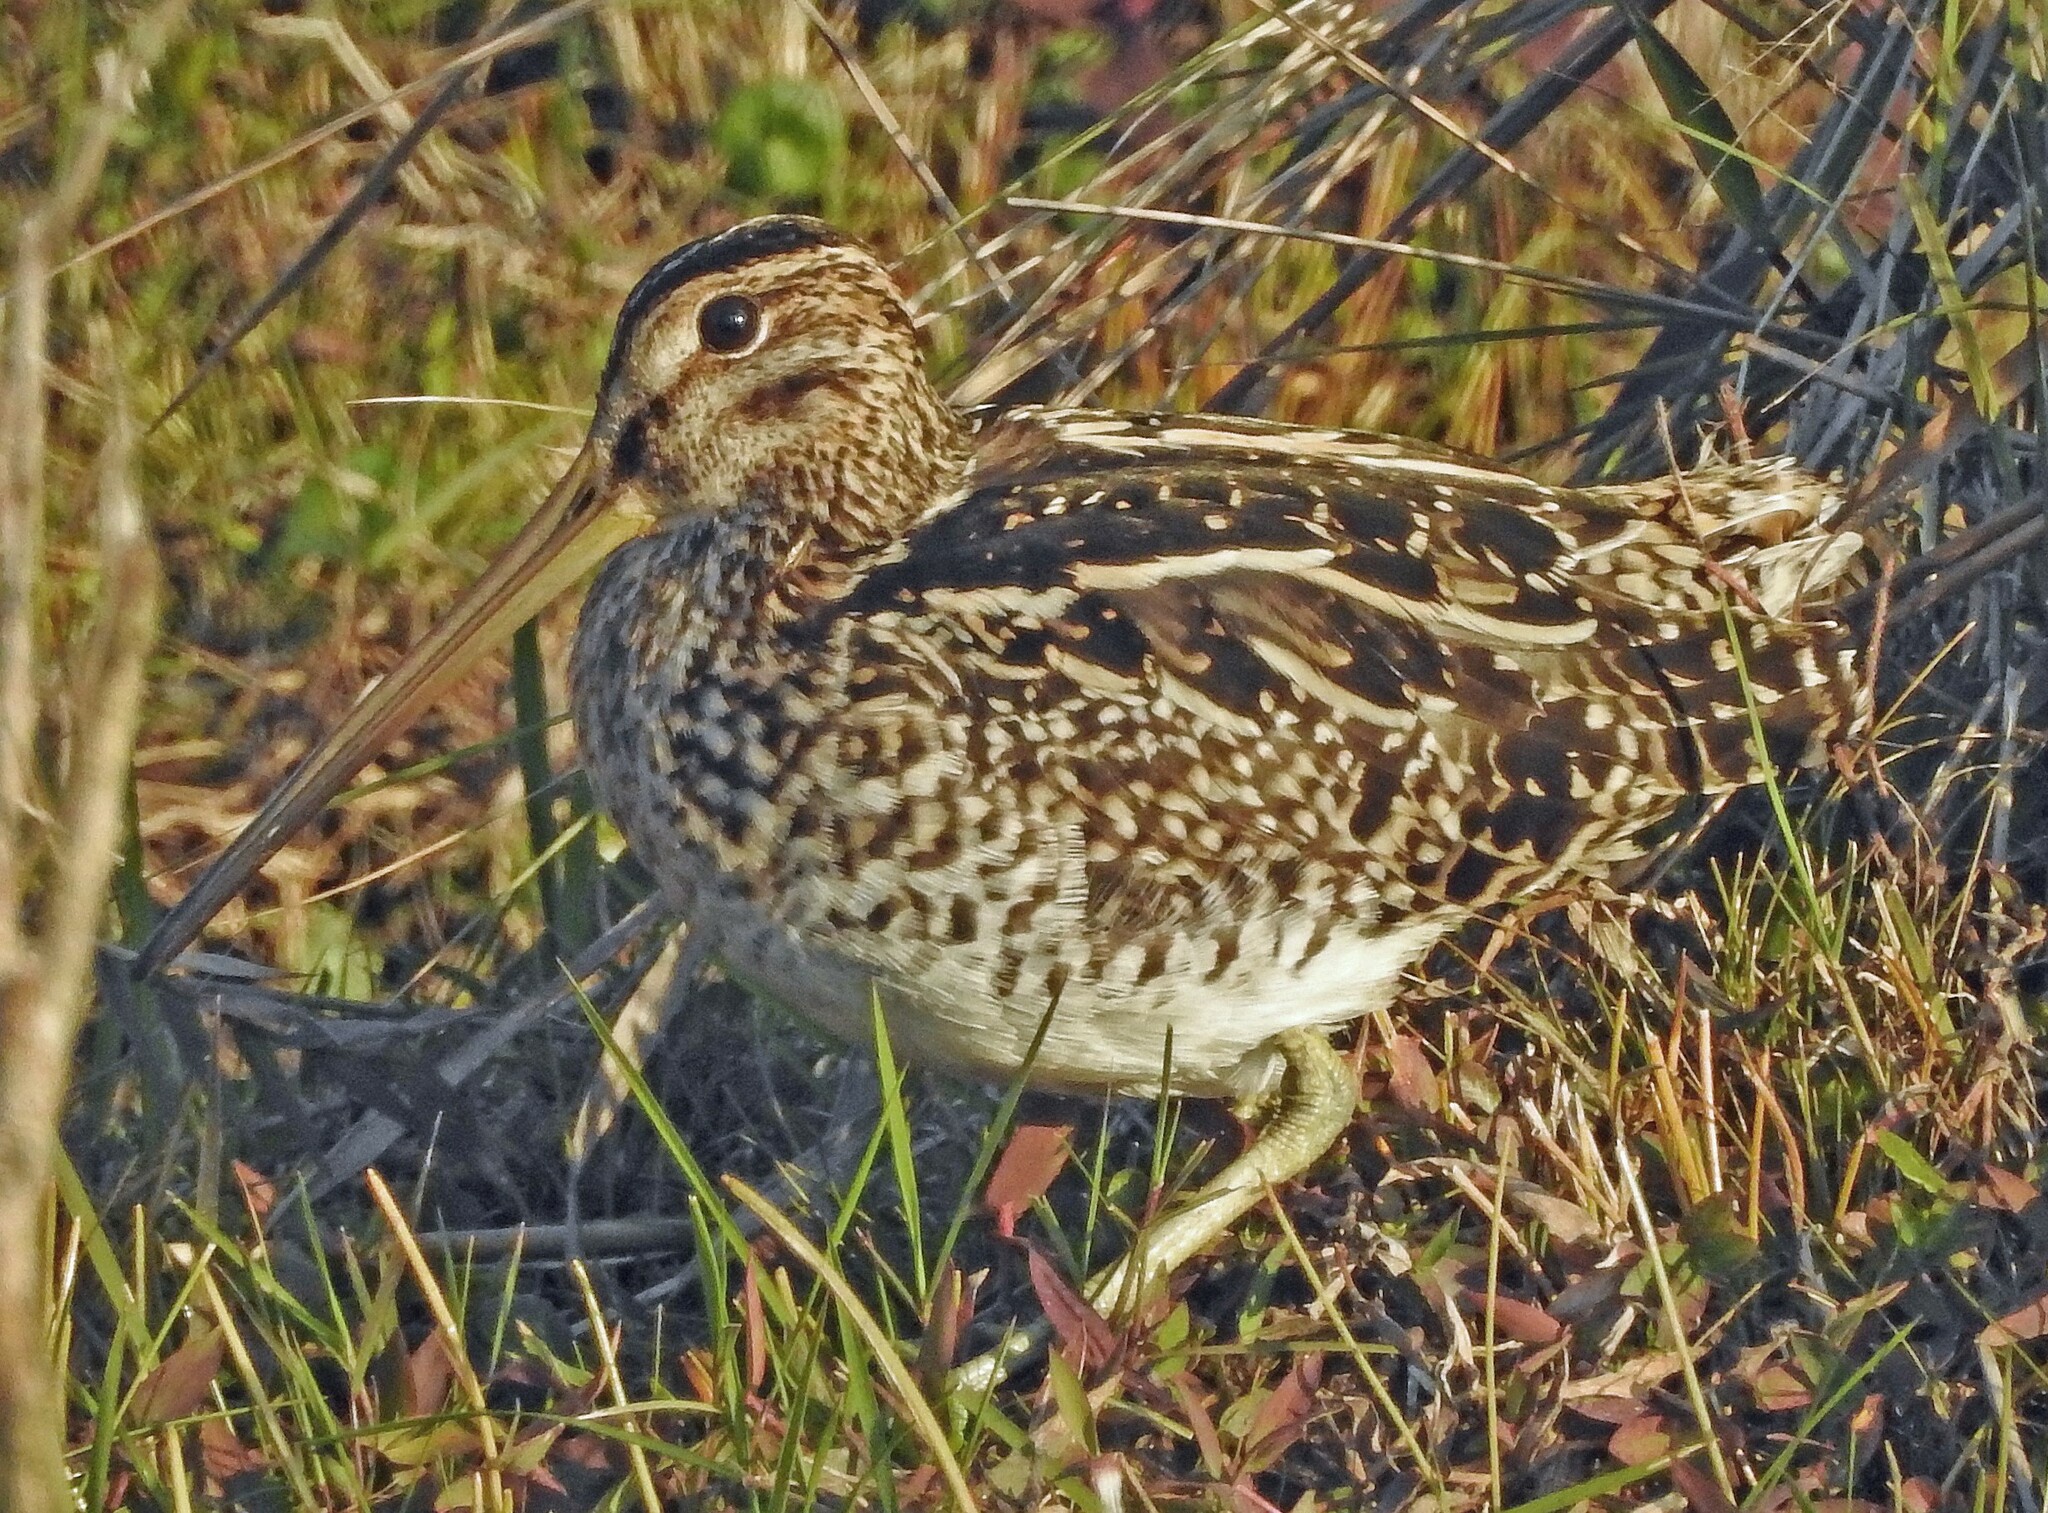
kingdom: Animalia
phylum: Chordata
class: Aves
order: Charadriiformes
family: Scolopacidae
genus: Gallinago
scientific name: Gallinago paraguaiae
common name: South american snipe
